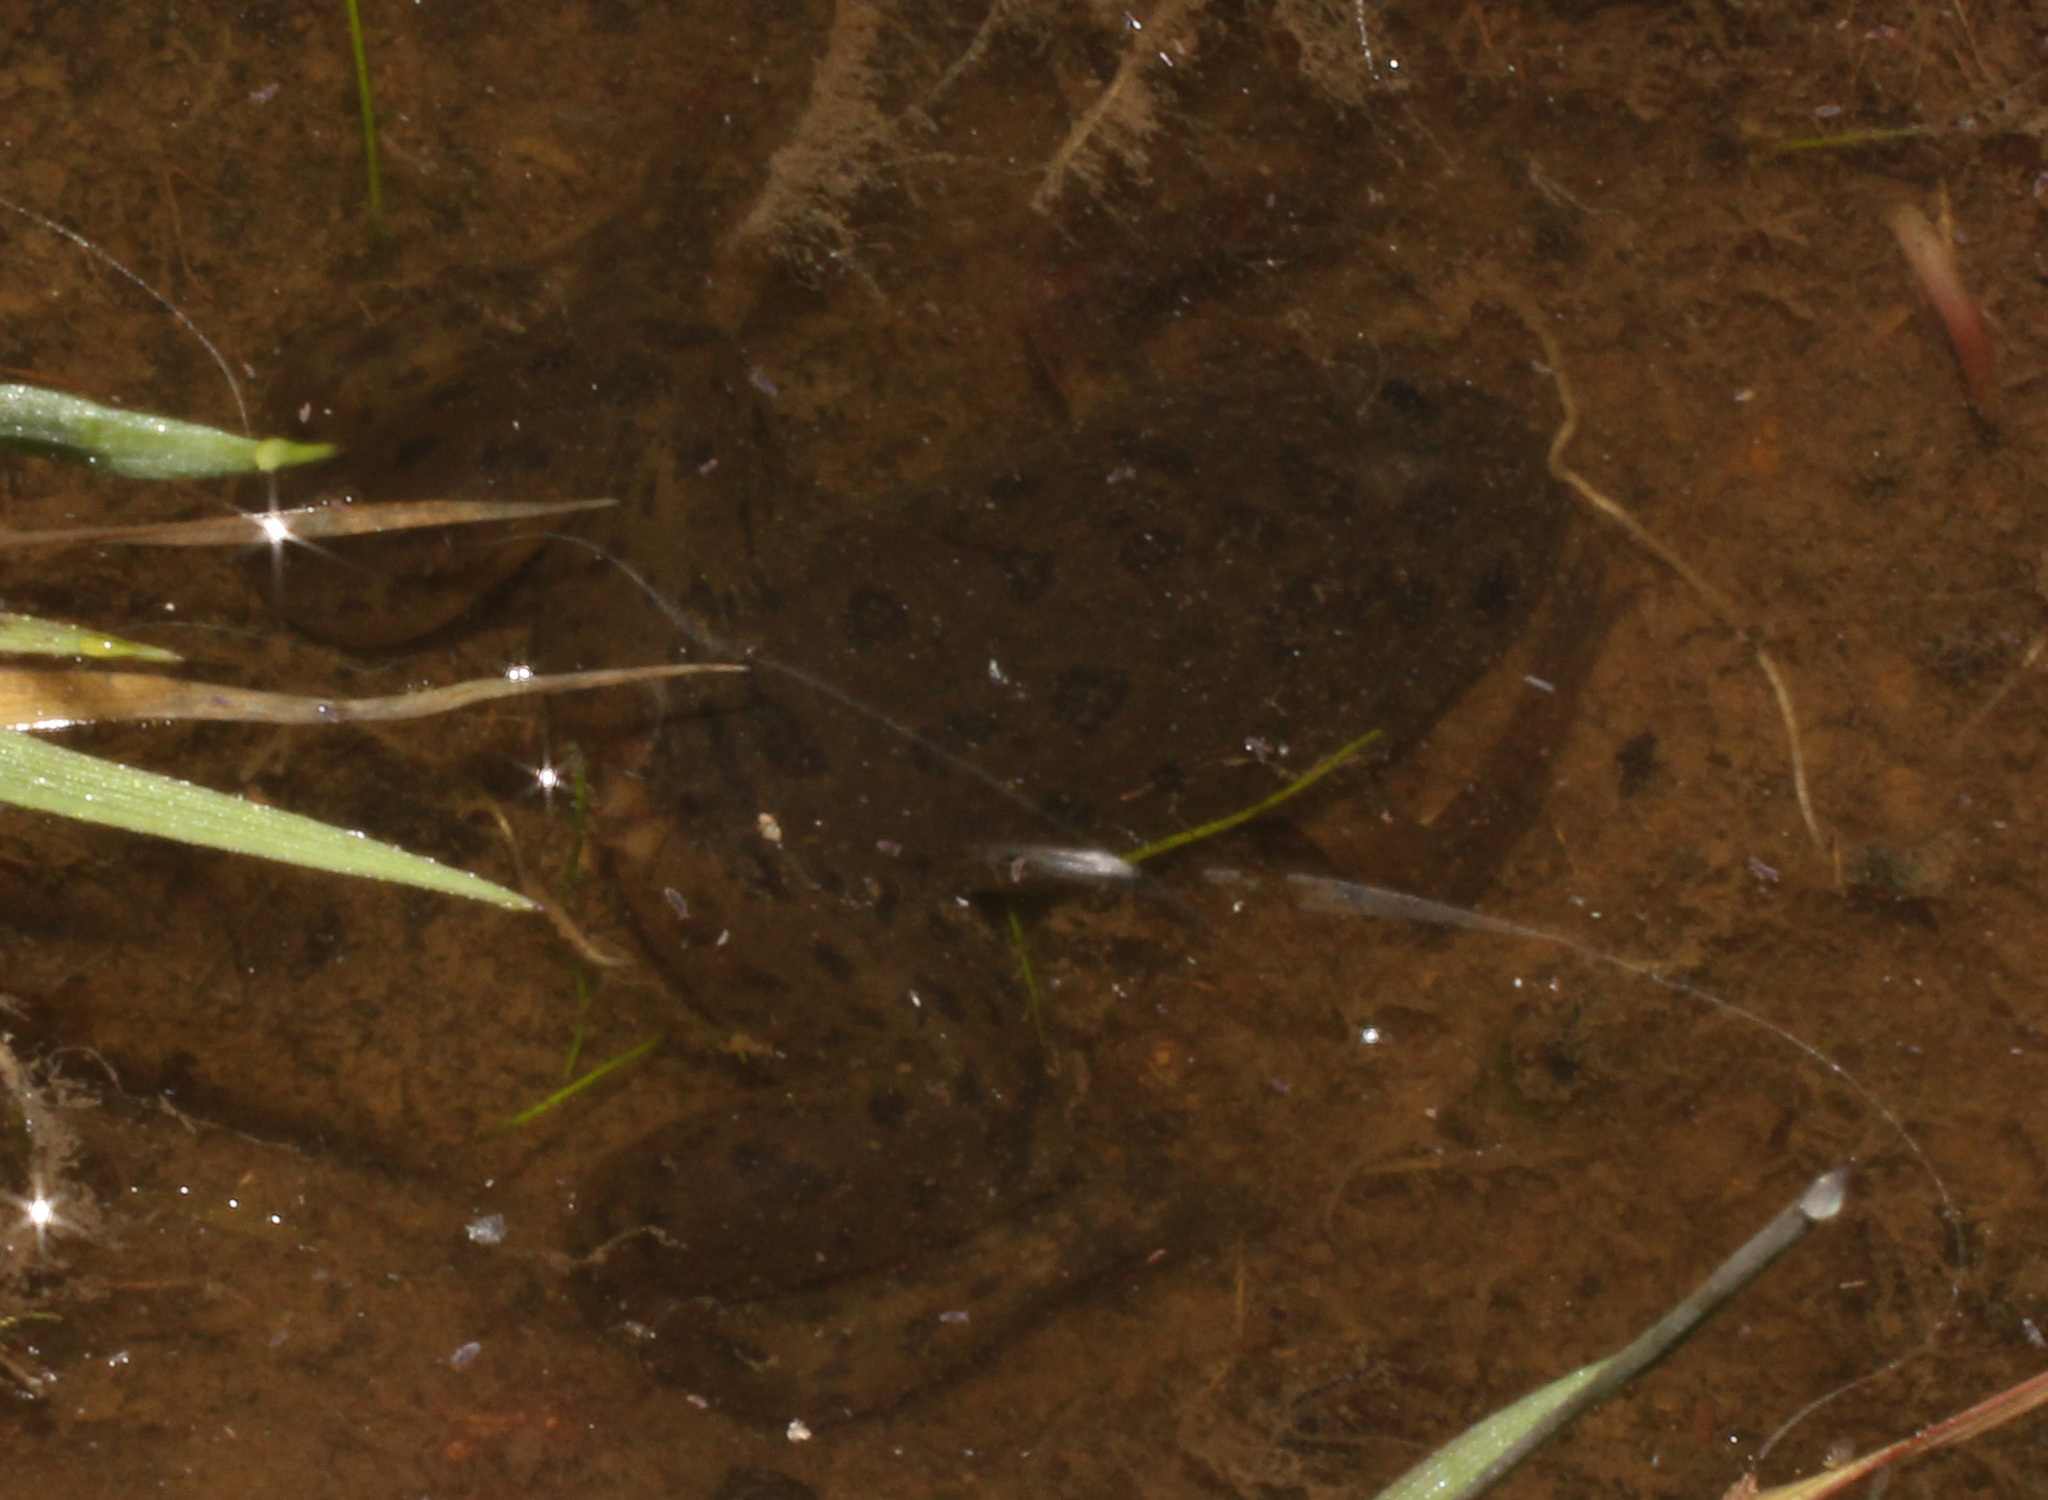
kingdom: Animalia
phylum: Chordata
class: Amphibia
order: Anura
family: Pipidae
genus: Xenopus
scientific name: Xenopus laevis
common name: African clawed frog
